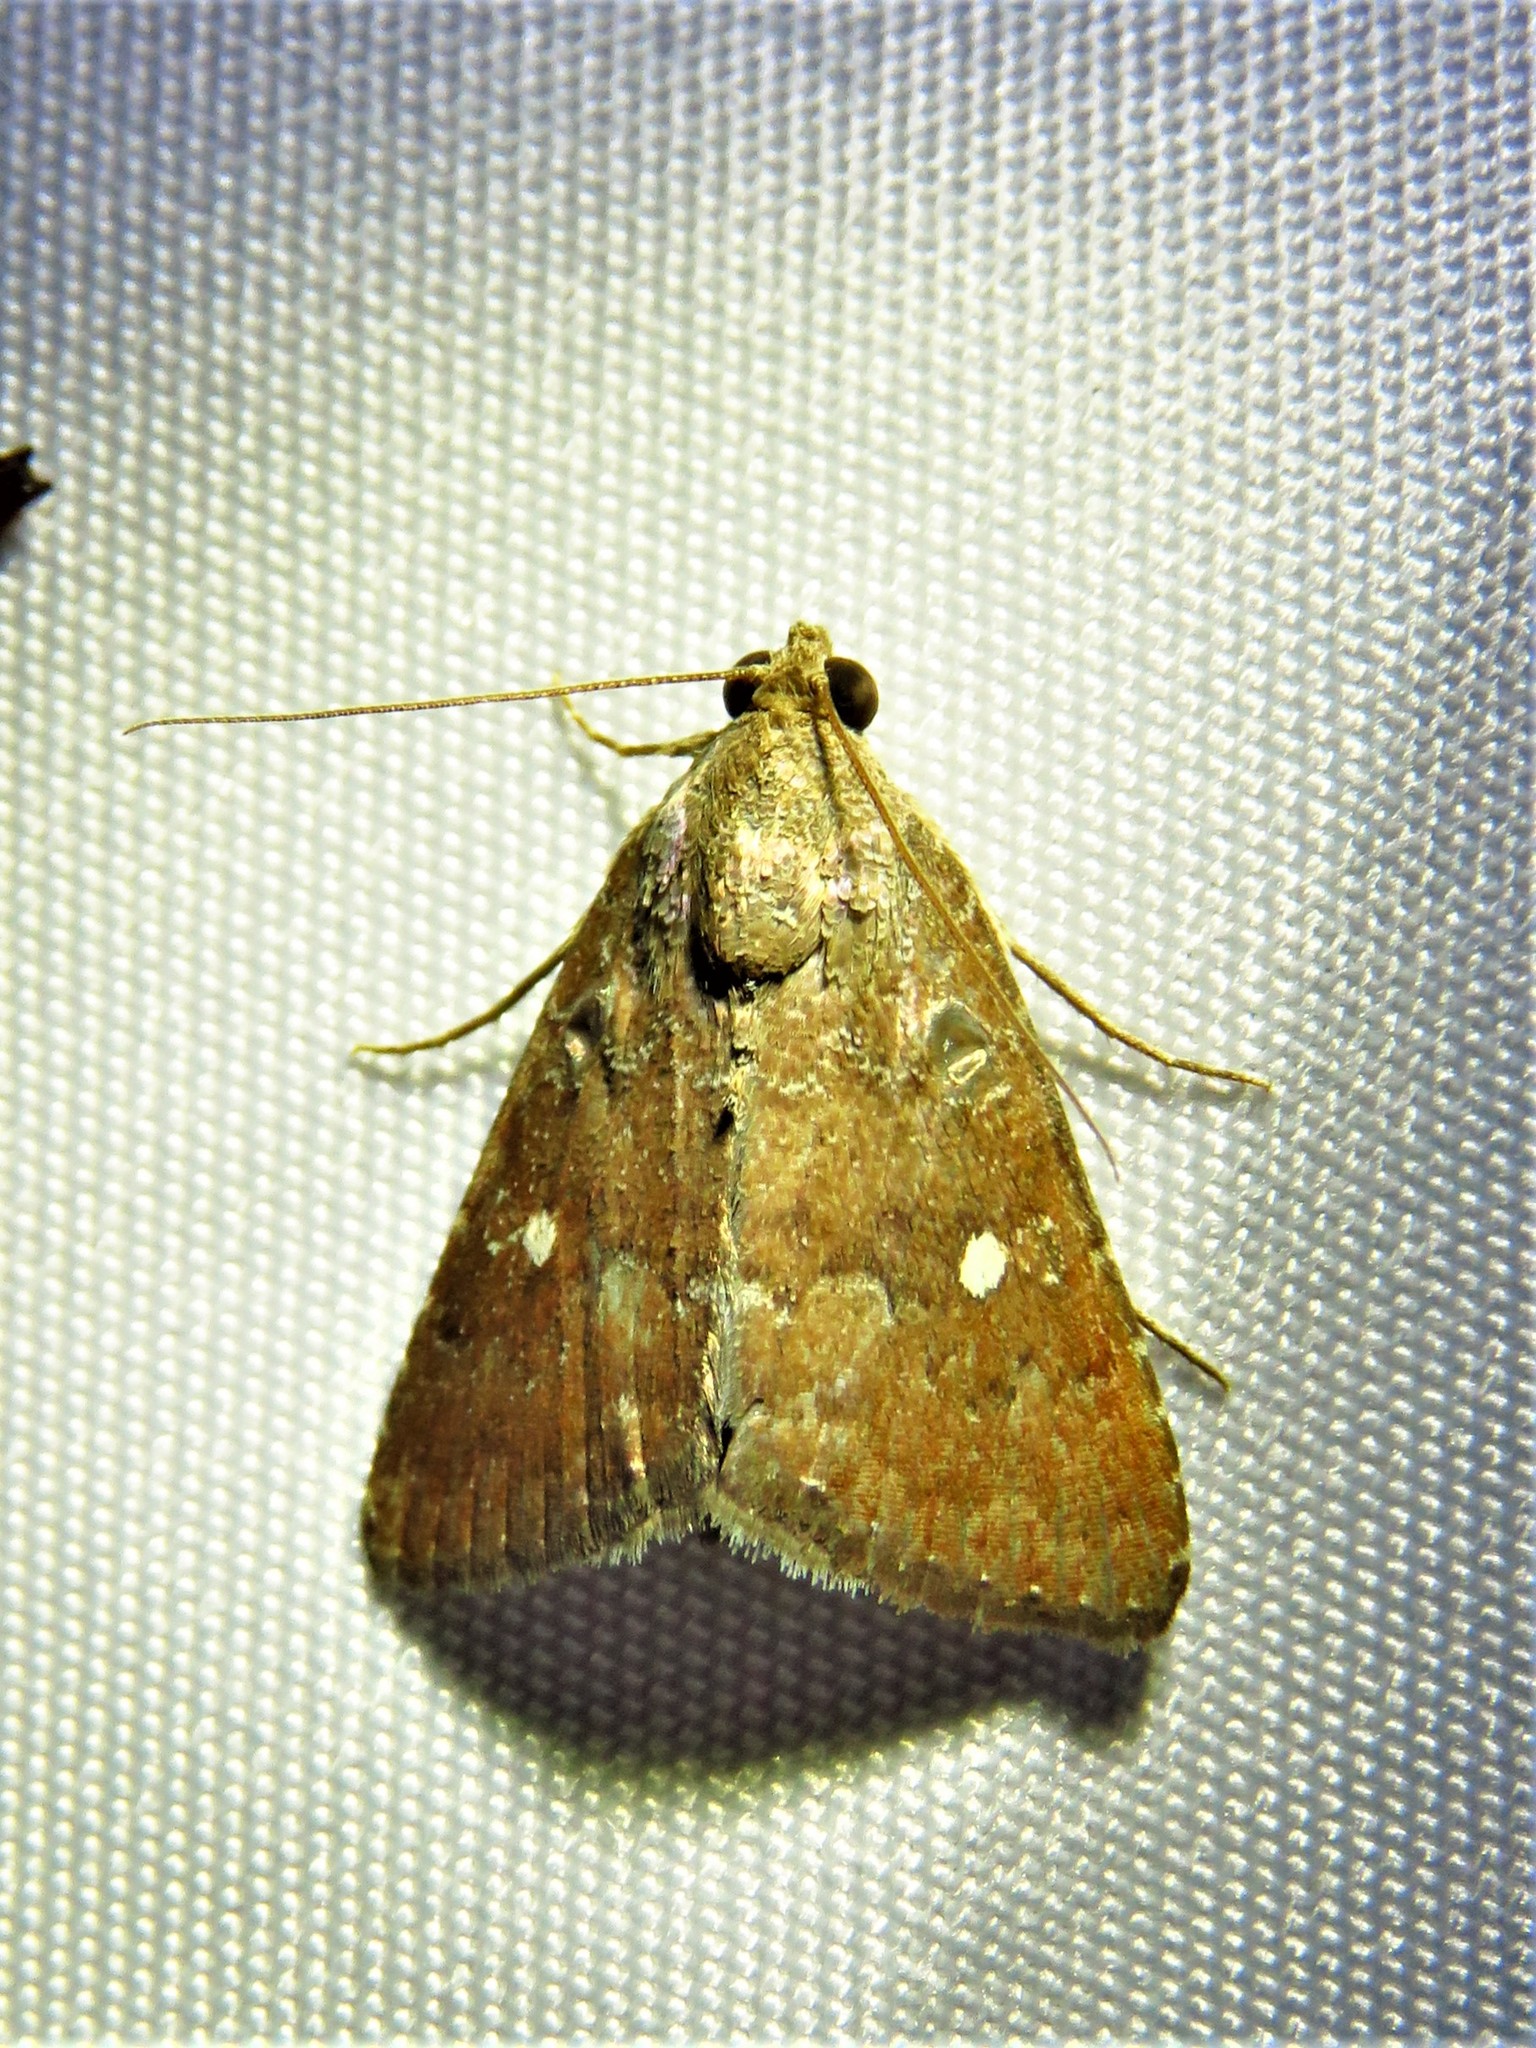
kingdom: Animalia
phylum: Arthropoda
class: Insecta
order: Lepidoptera
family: Noctuidae
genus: Amyna
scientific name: Amyna stricta
